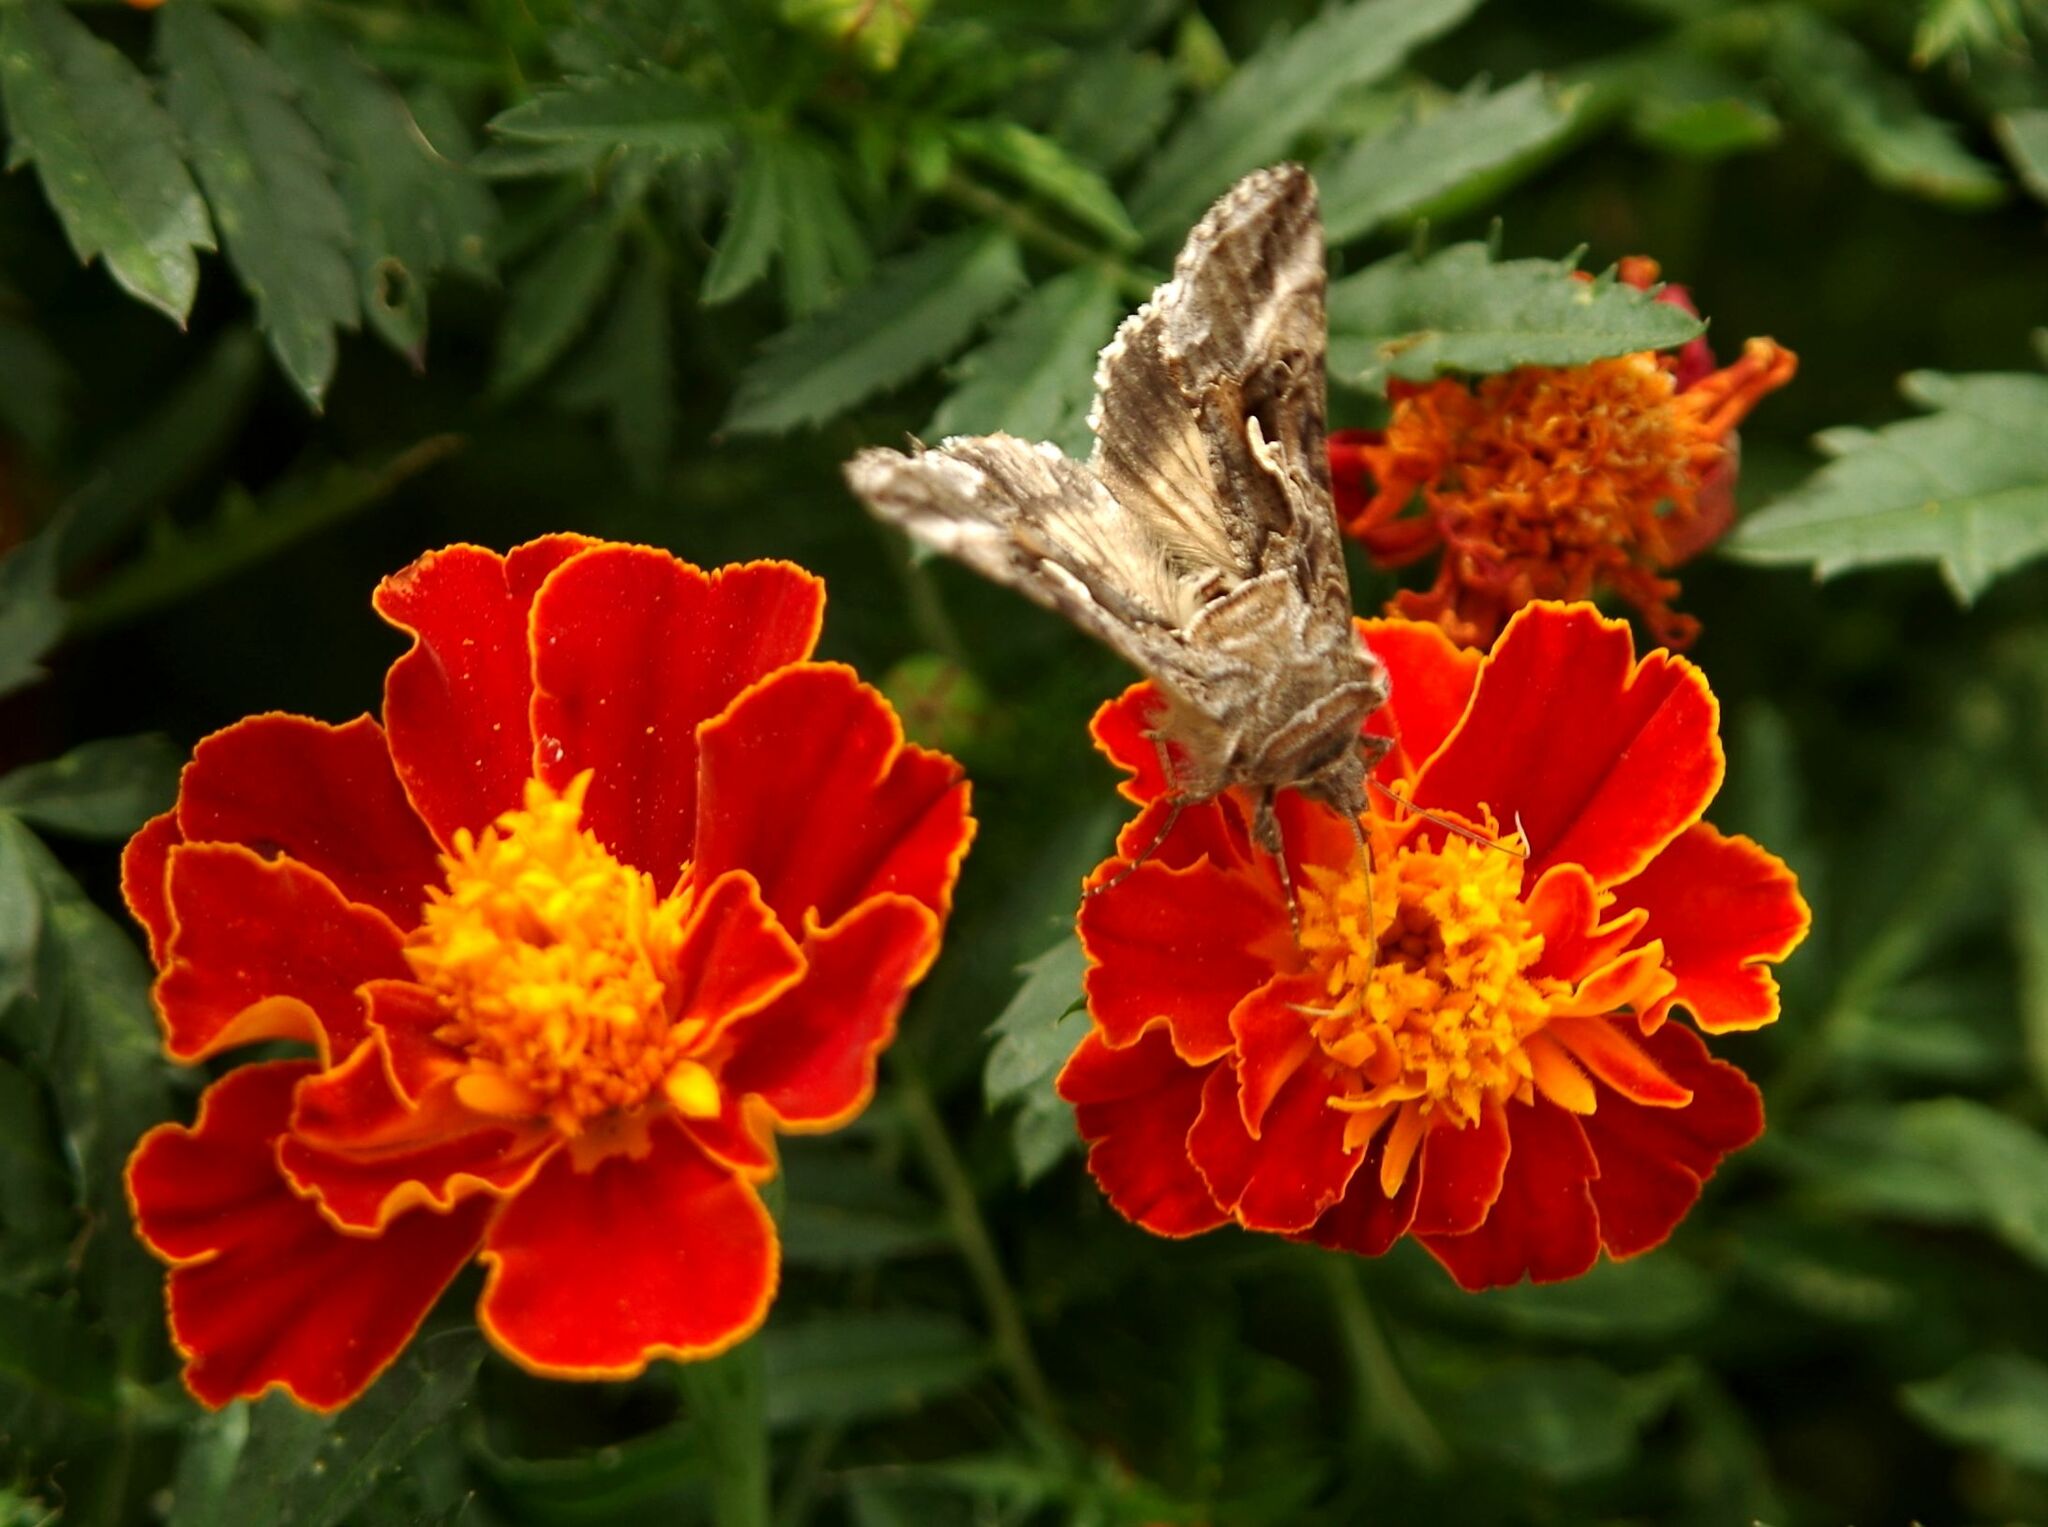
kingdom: Animalia
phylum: Arthropoda
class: Insecta
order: Lepidoptera
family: Noctuidae
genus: Autographa
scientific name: Autographa gamma
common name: Silver y
